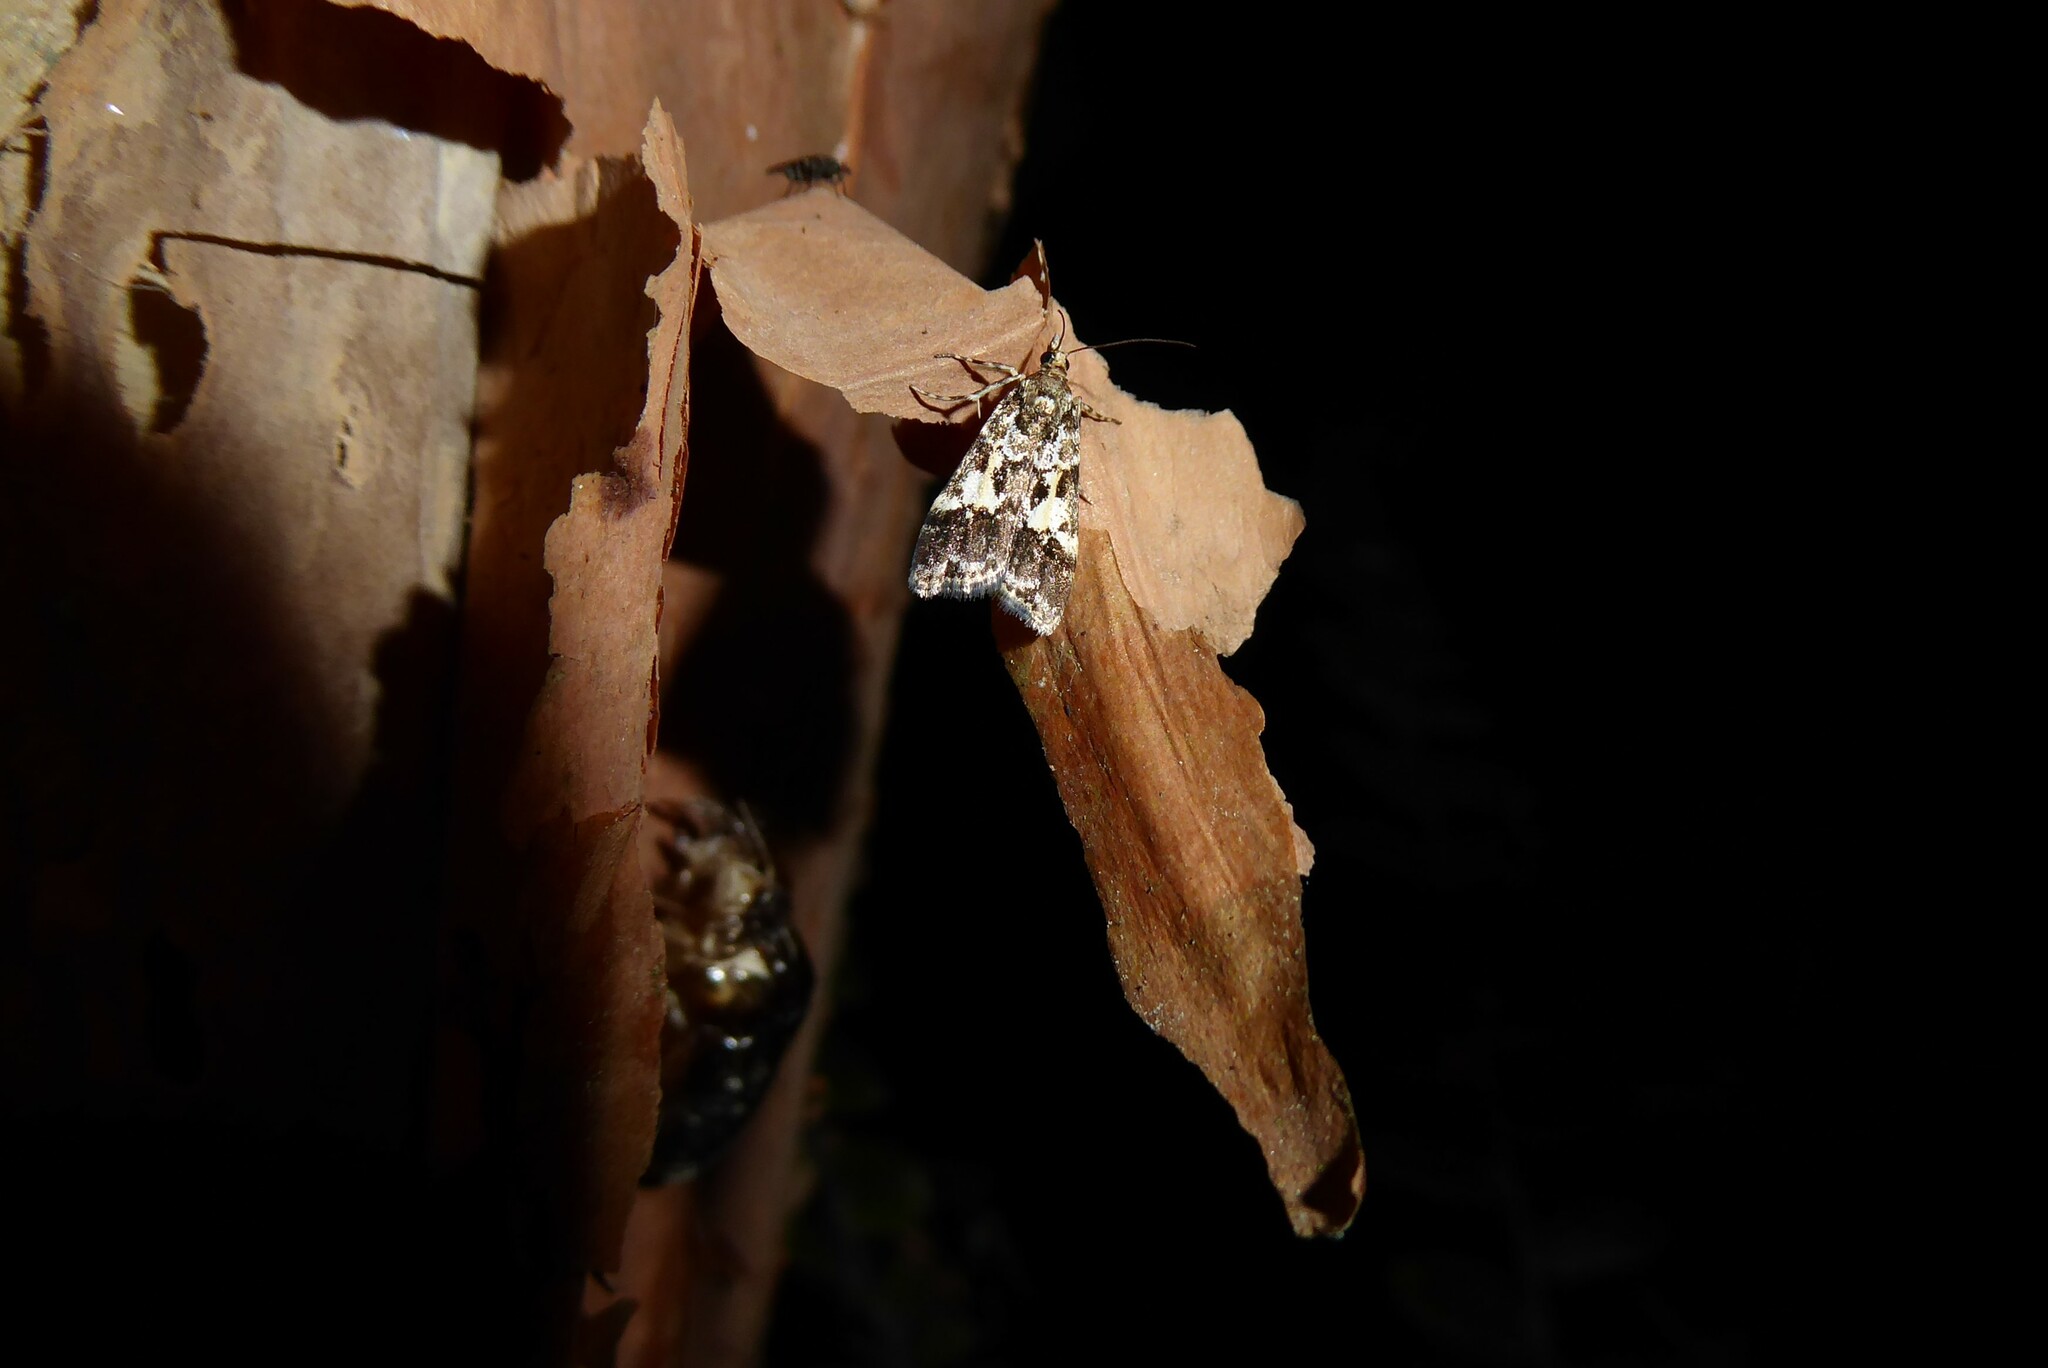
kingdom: Animalia
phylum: Arthropoda
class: Insecta
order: Lepidoptera
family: Crambidae
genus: Eudonia
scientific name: Eudonia characta
